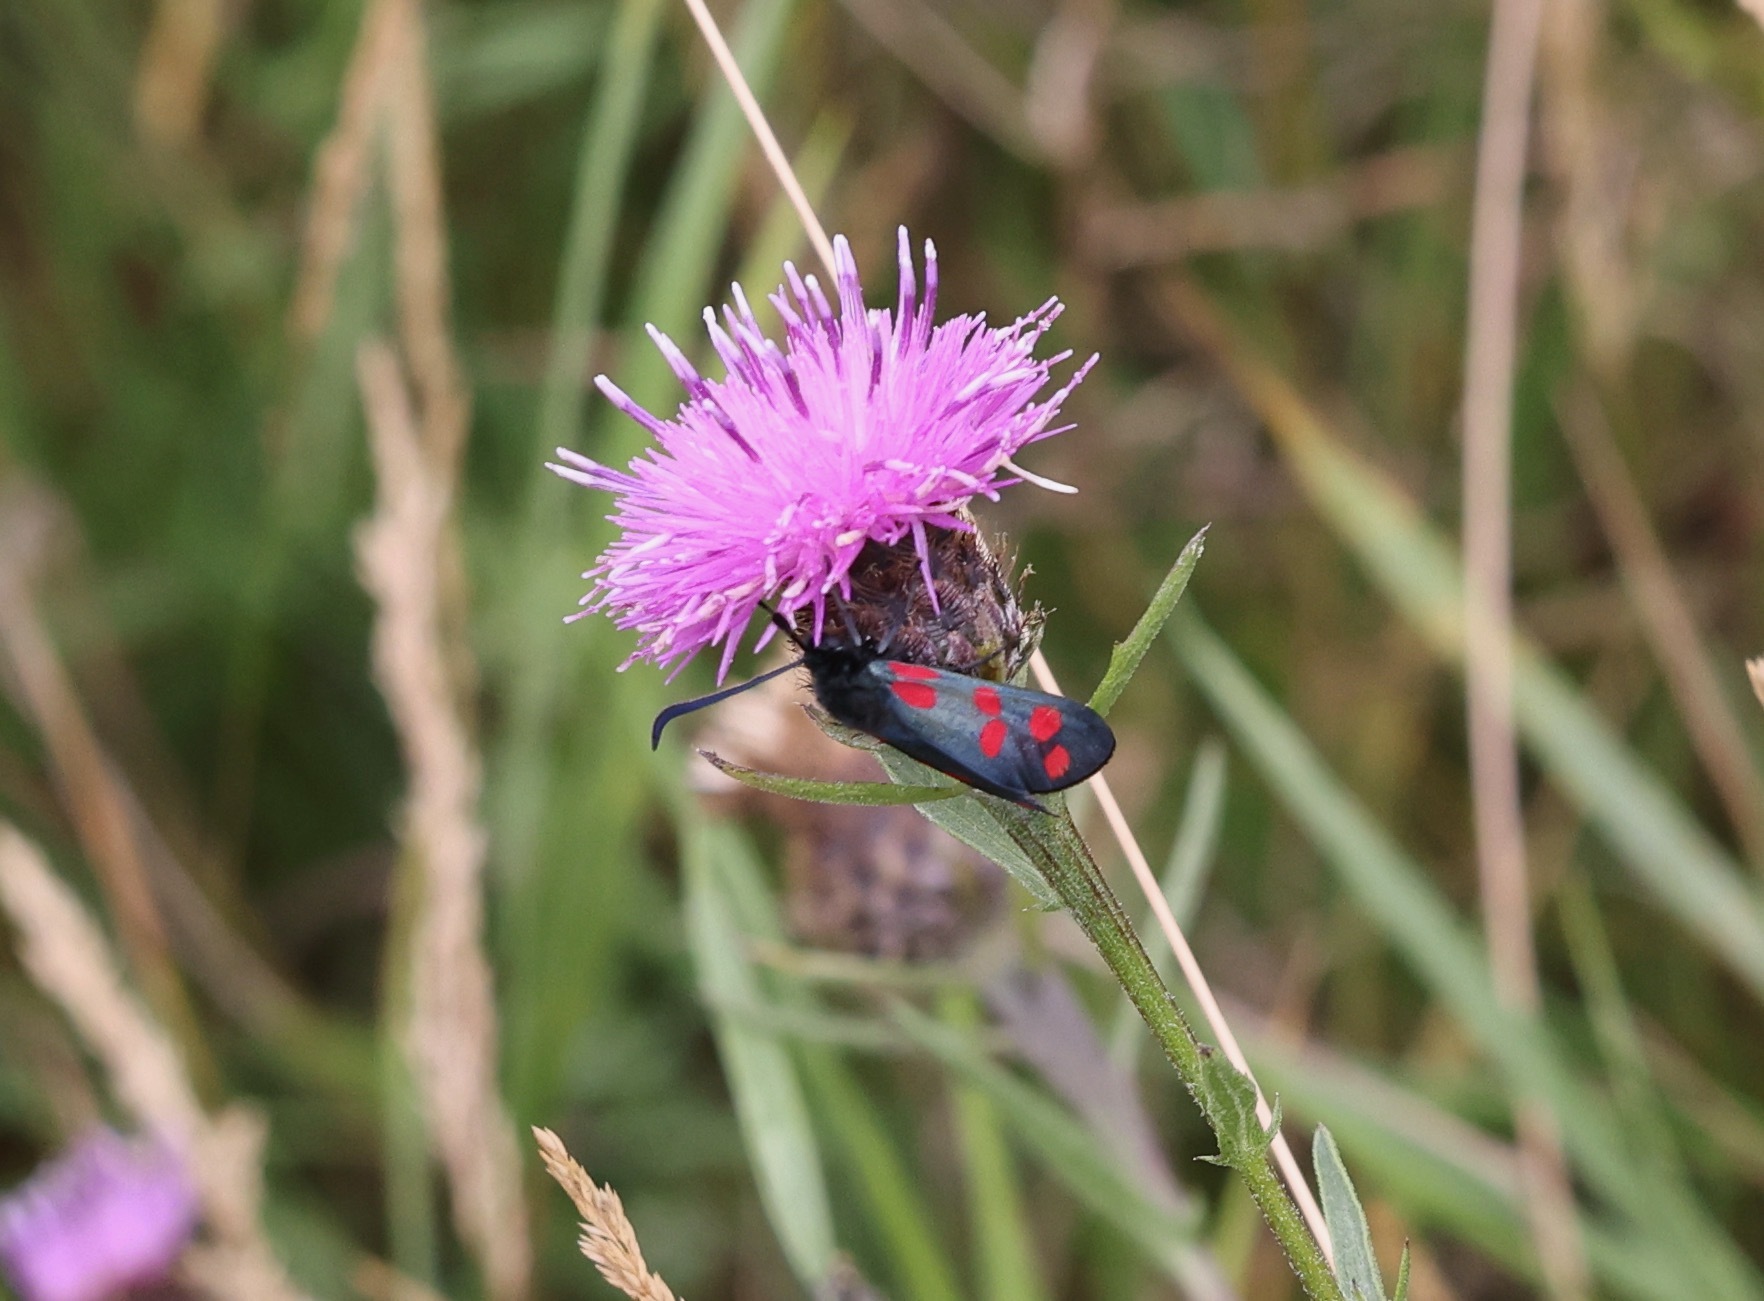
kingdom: Animalia
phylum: Arthropoda
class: Insecta
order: Lepidoptera
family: Zygaenidae
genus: Zygaena
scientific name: Zygaena filipendulae
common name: Six-spot burnet
